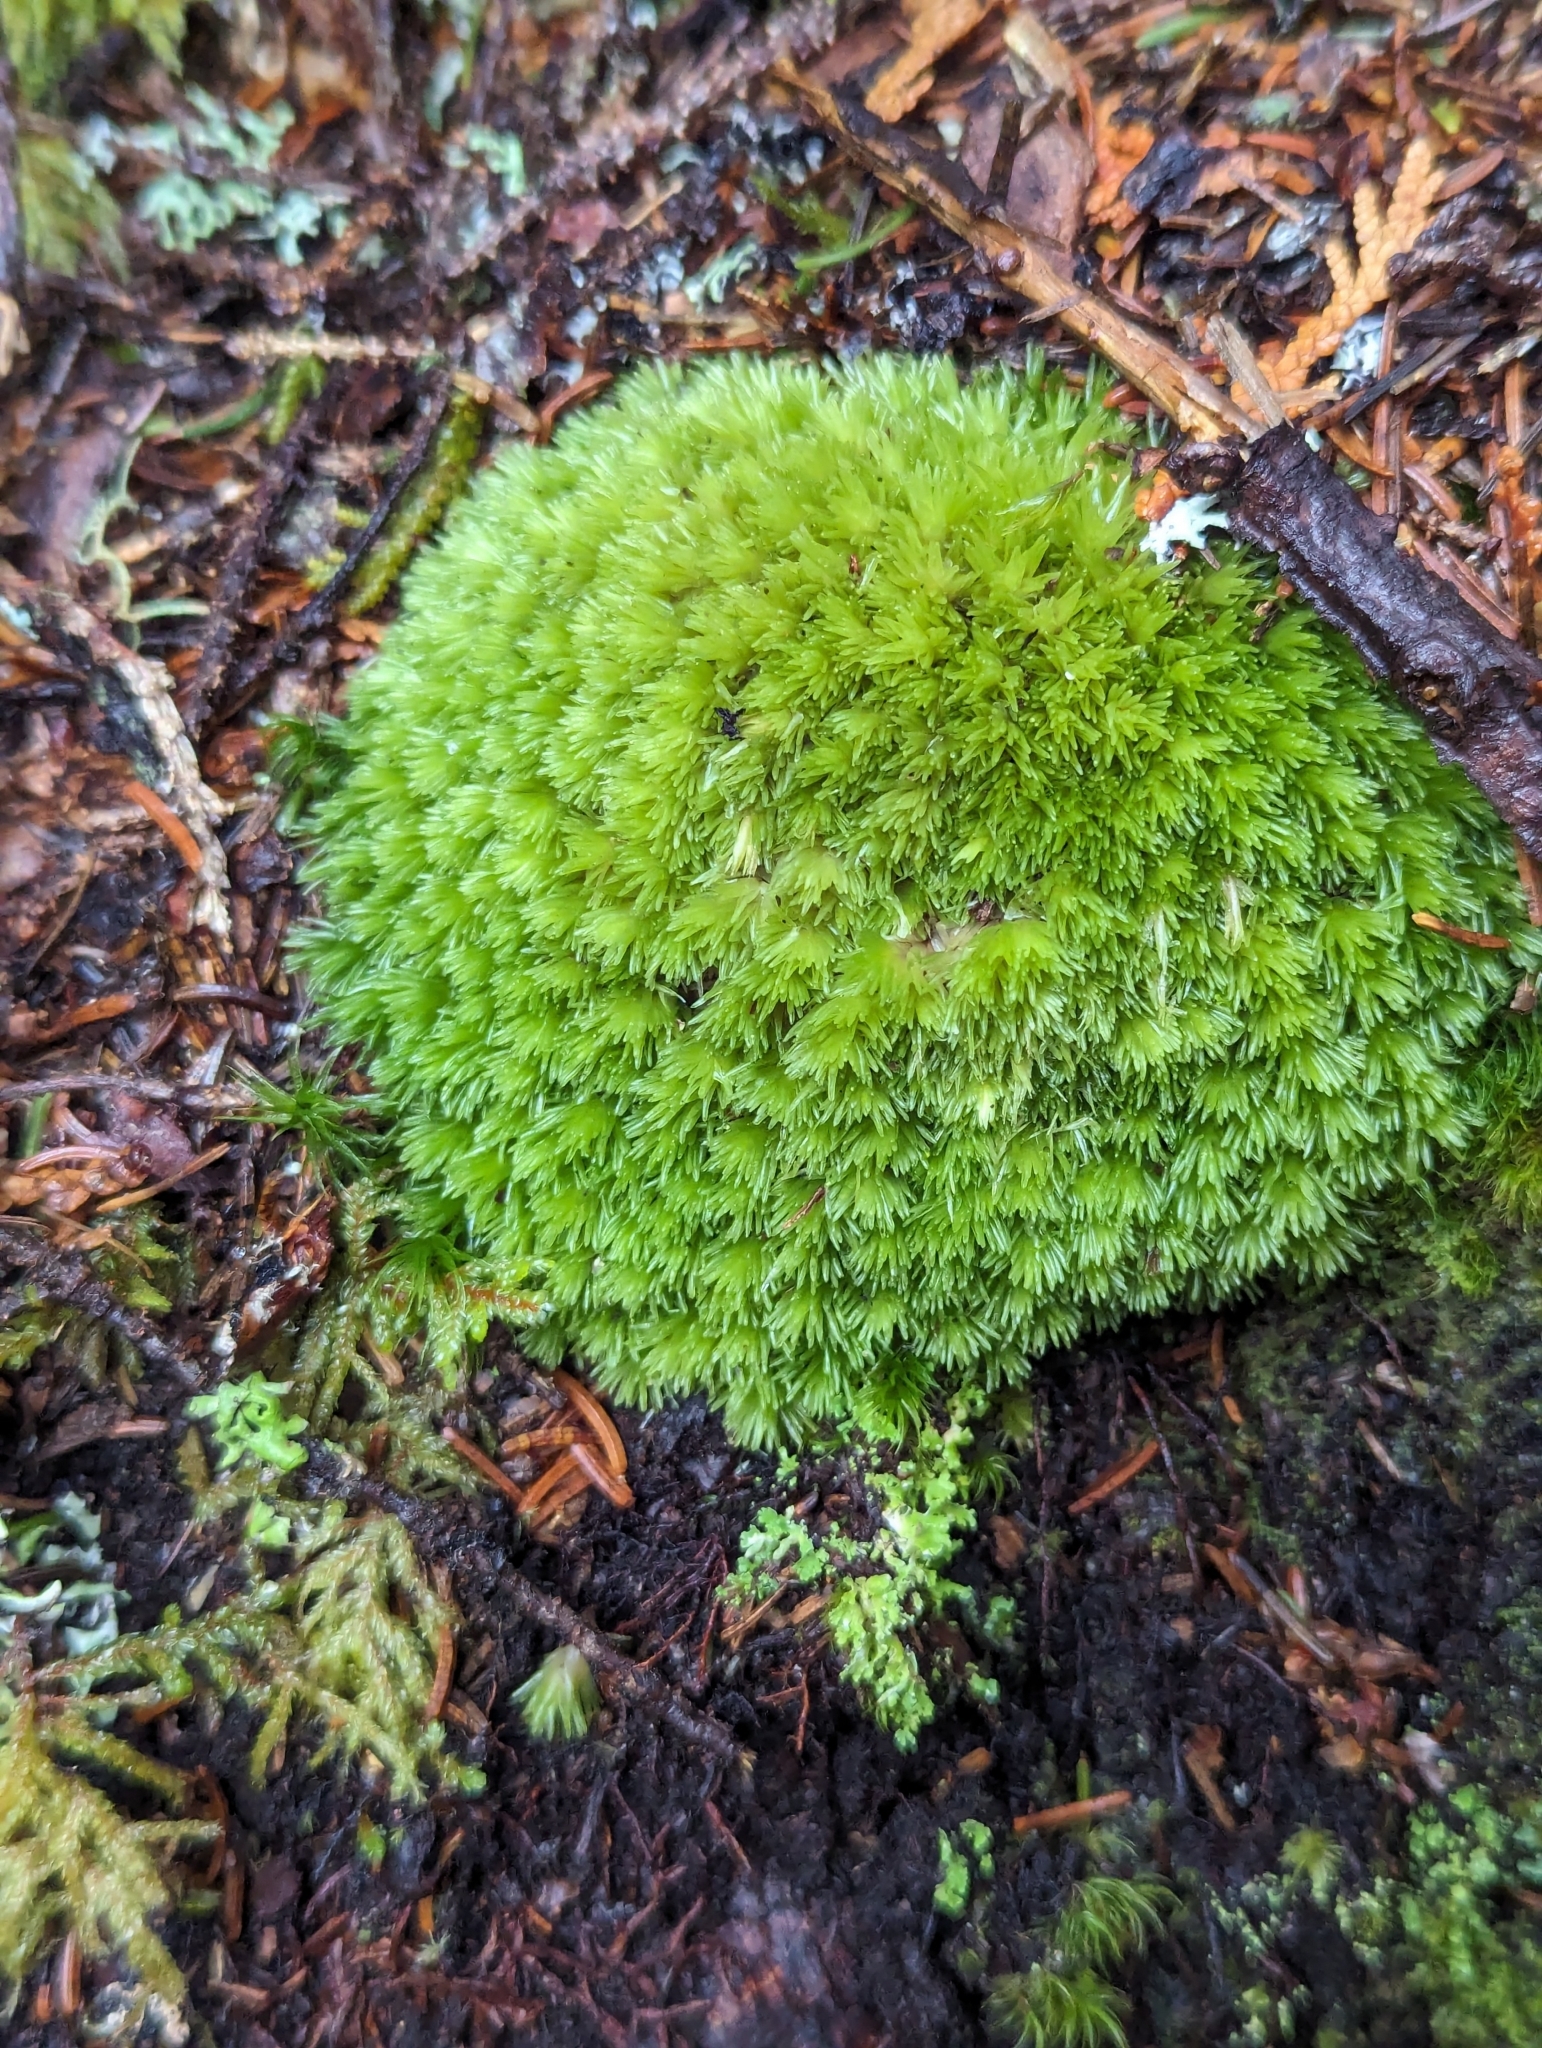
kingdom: Plantae
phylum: Bryophyta
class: Bryopsida
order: Dicranales
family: Leucobryaceae
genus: Leucobryum
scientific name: Leucobryum glaucum
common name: Large white-moss
